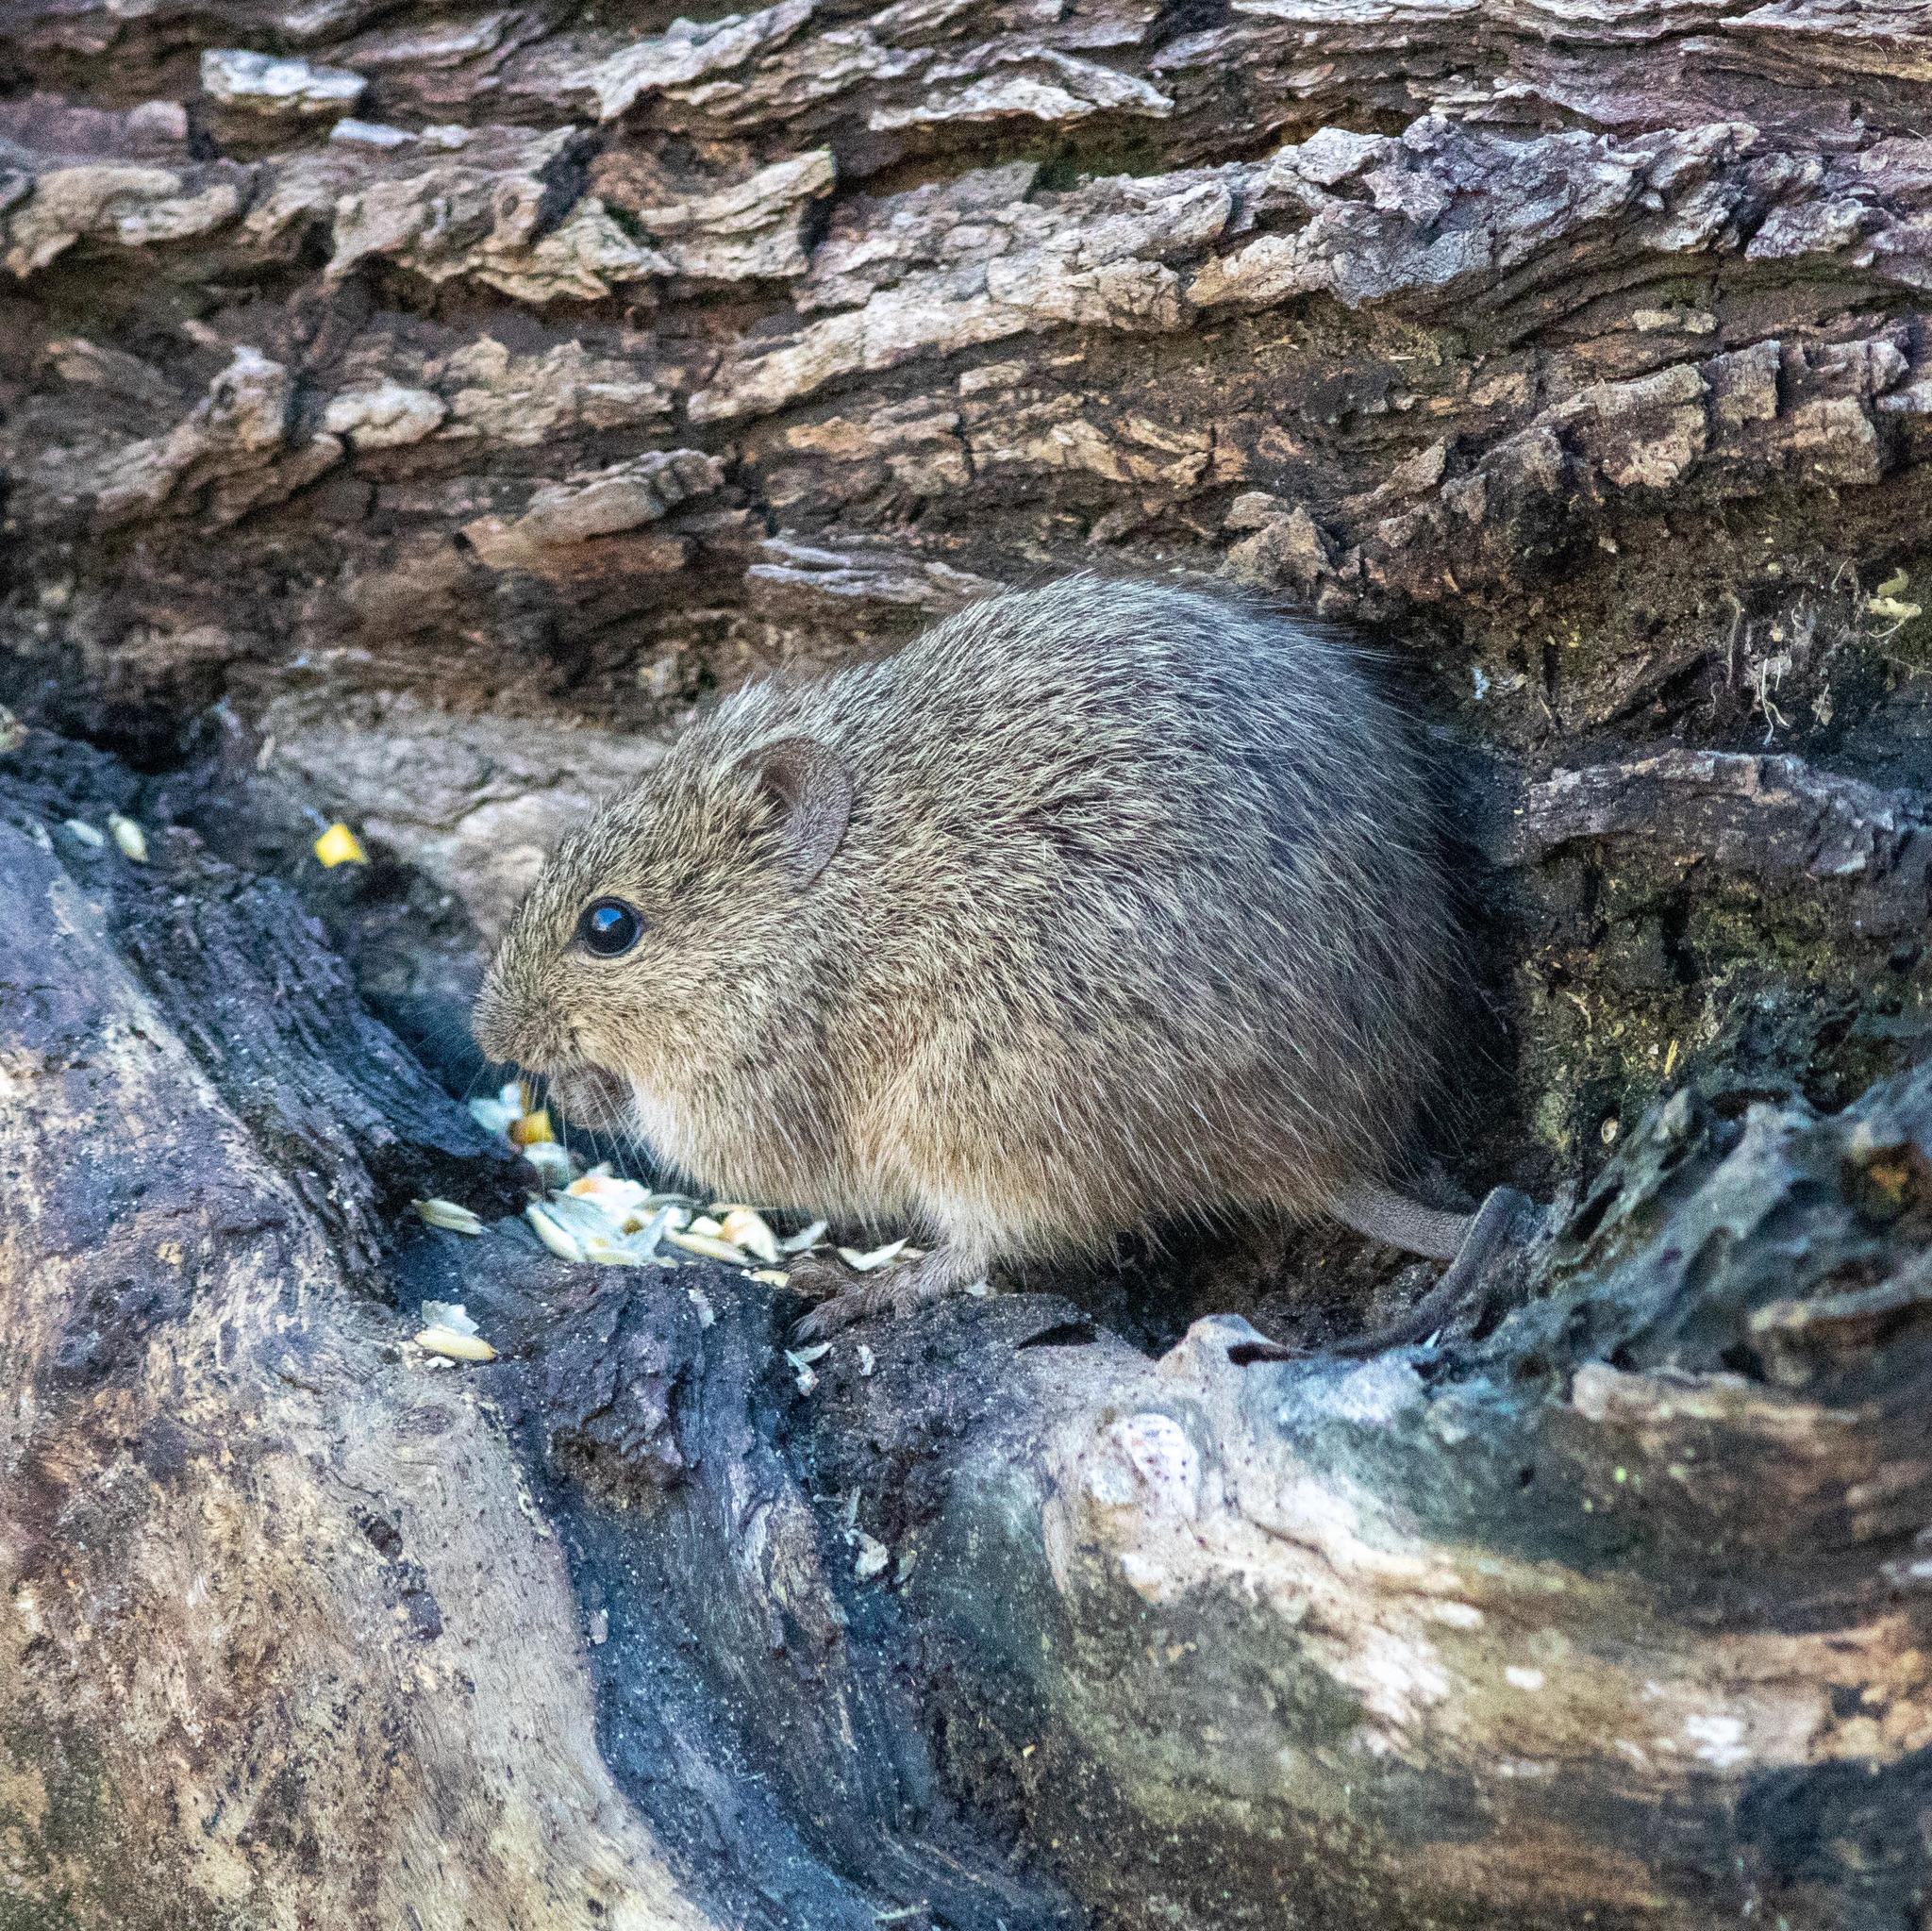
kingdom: Animalia
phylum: Chordata
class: Mammalia
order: Rodentia
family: Cricetidae
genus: Sigmodon
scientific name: Sigmodon hispidus
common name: Hispid cotton rat
